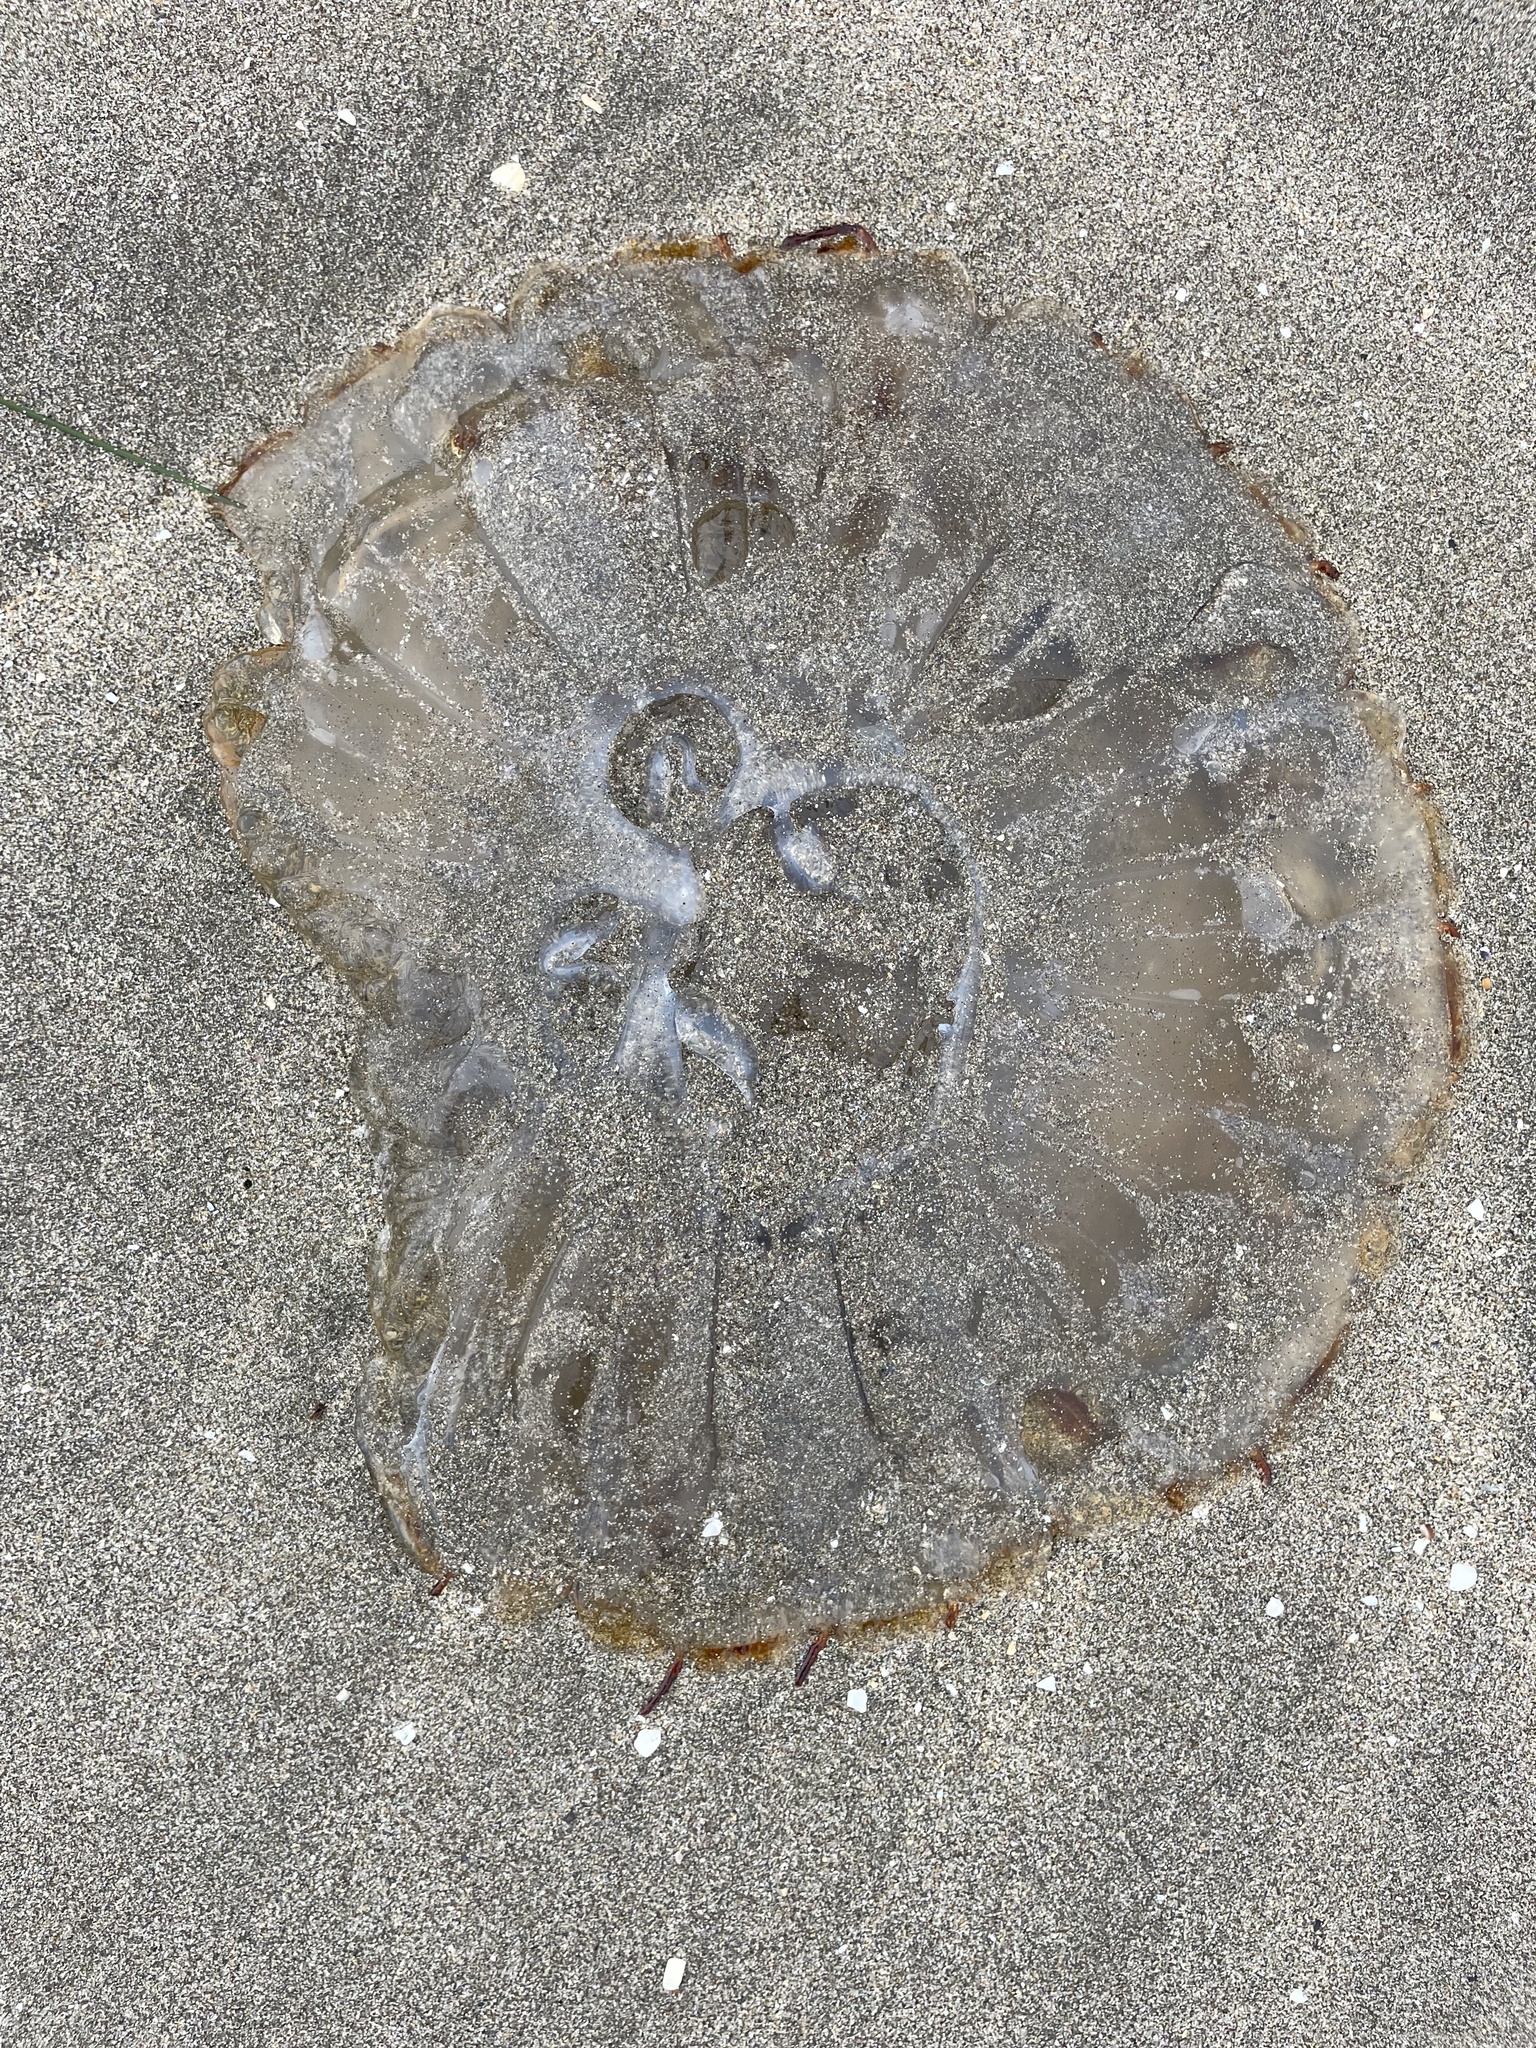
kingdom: Animalia
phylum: Cnidaria
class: Scyphozoa
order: Semaeostomeae
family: Pelagiidae
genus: Chrysaora
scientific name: Chrysaora fuscescens
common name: Sea nettle
